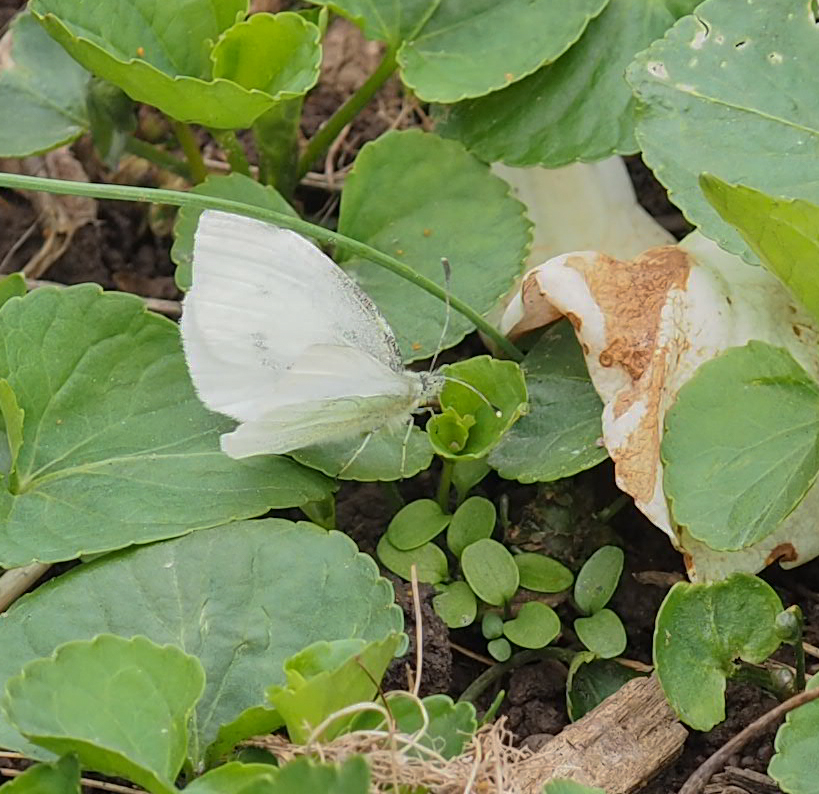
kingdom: Animalia
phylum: Arthropoda
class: Insecta
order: Lepidoptera
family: Pieridae
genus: Pieris
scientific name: Pieris rapae
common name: Small white
